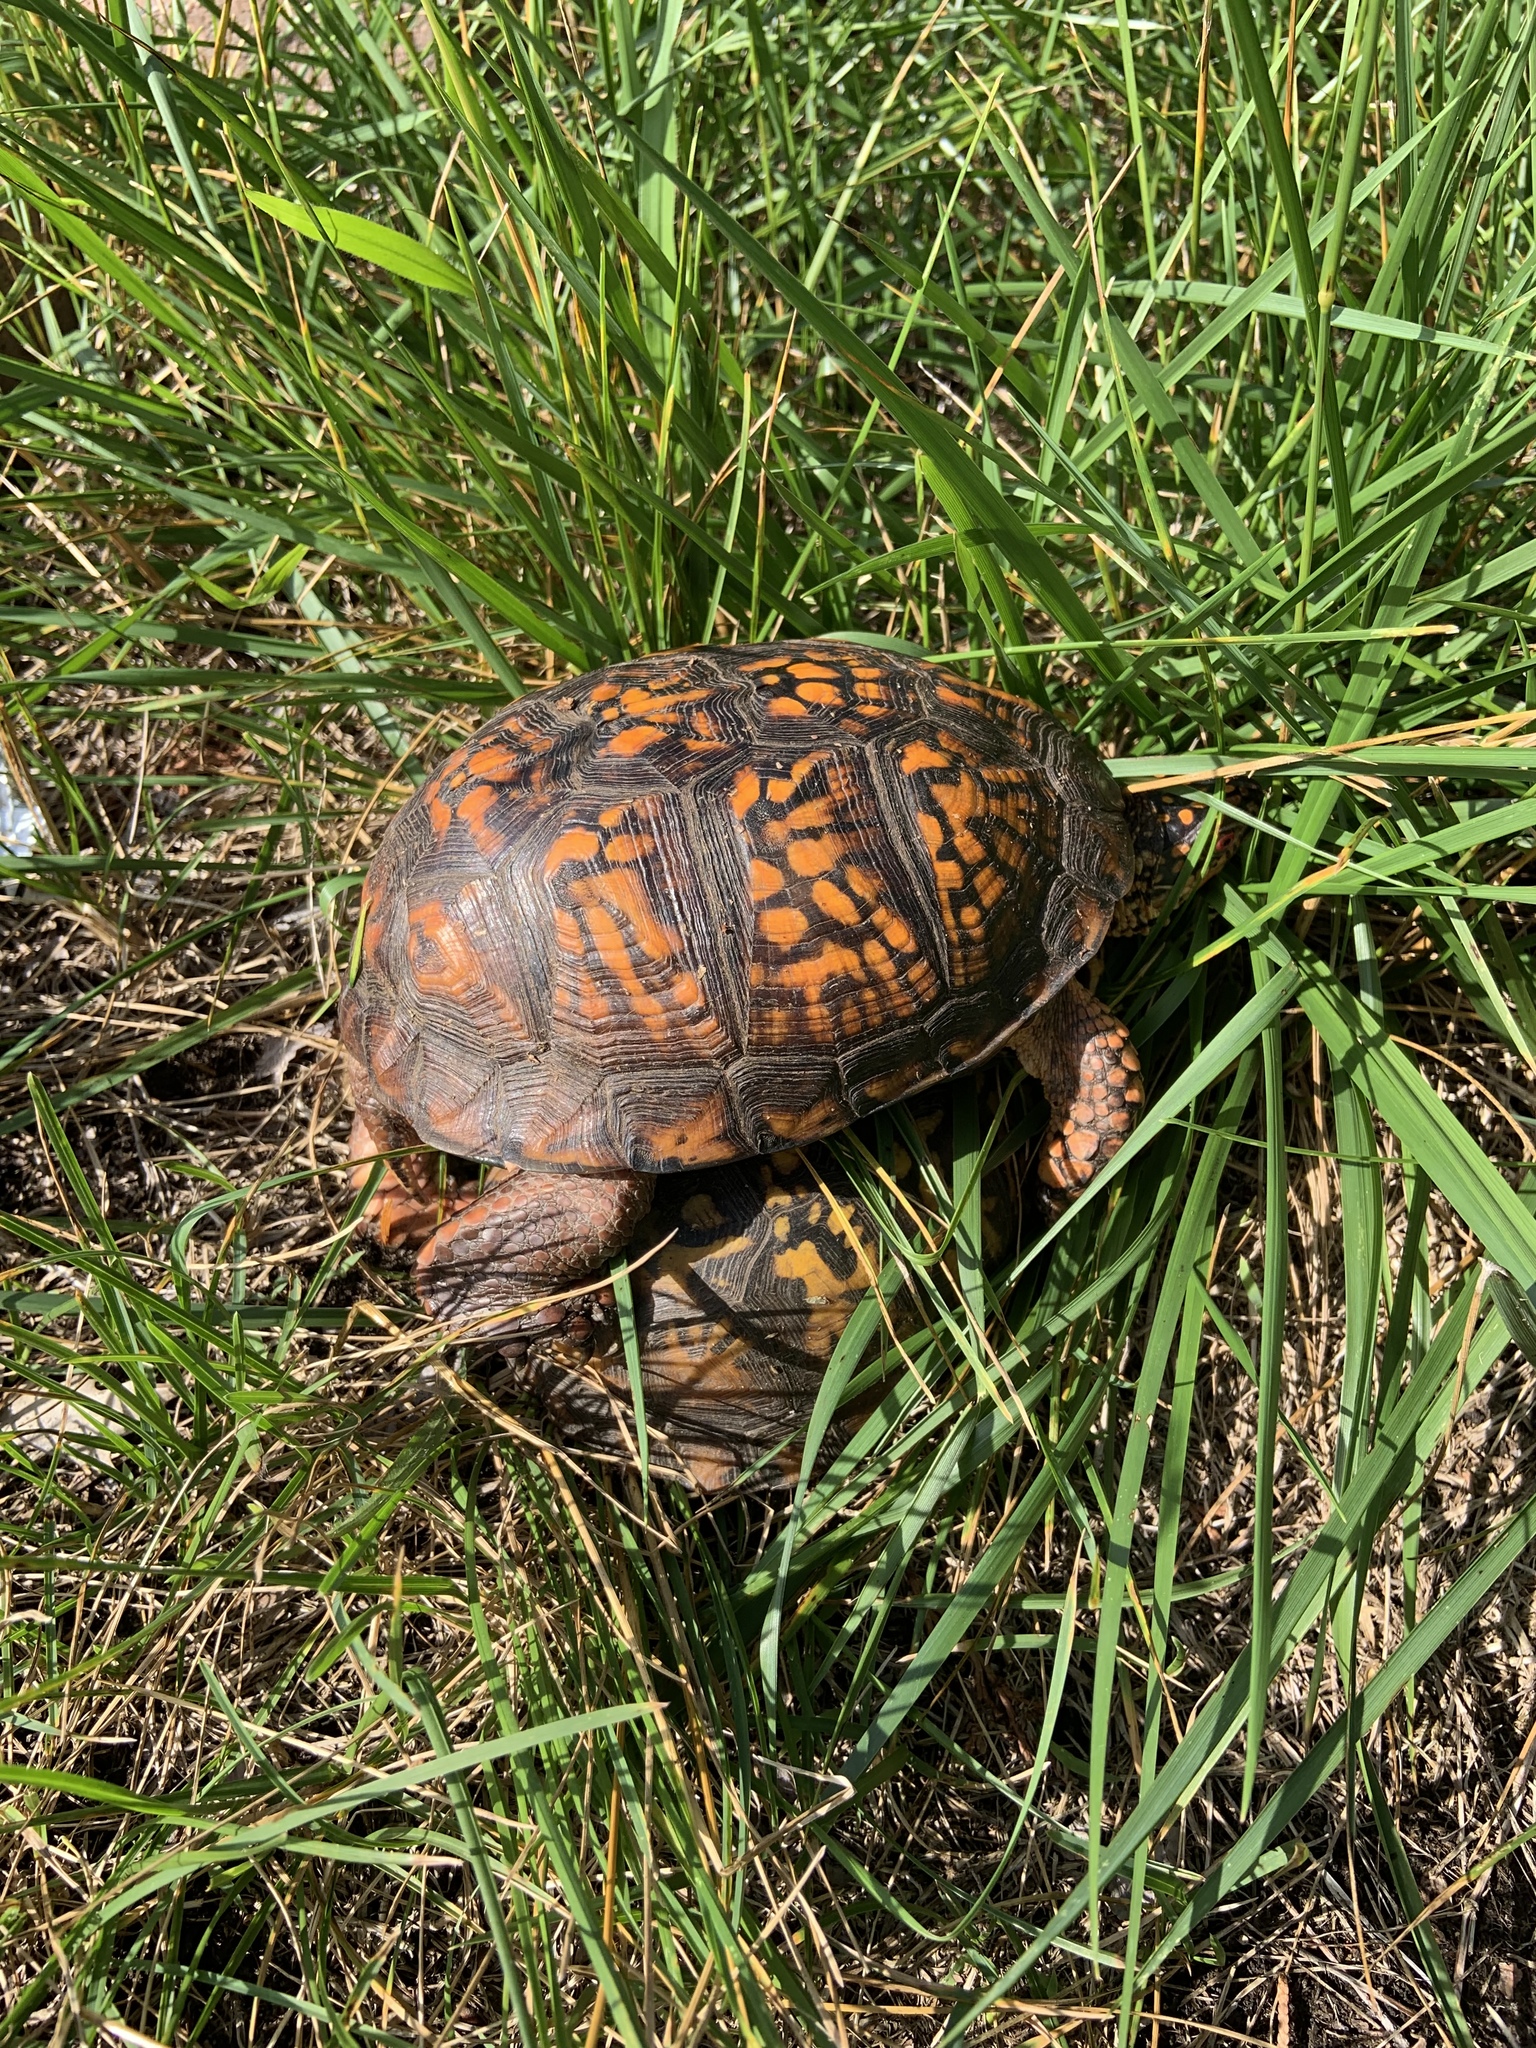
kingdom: Animalia
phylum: Chordata
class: Testudines
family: Emydidae
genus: Terrapene
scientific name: Terrapene carolina
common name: Common box turtle
